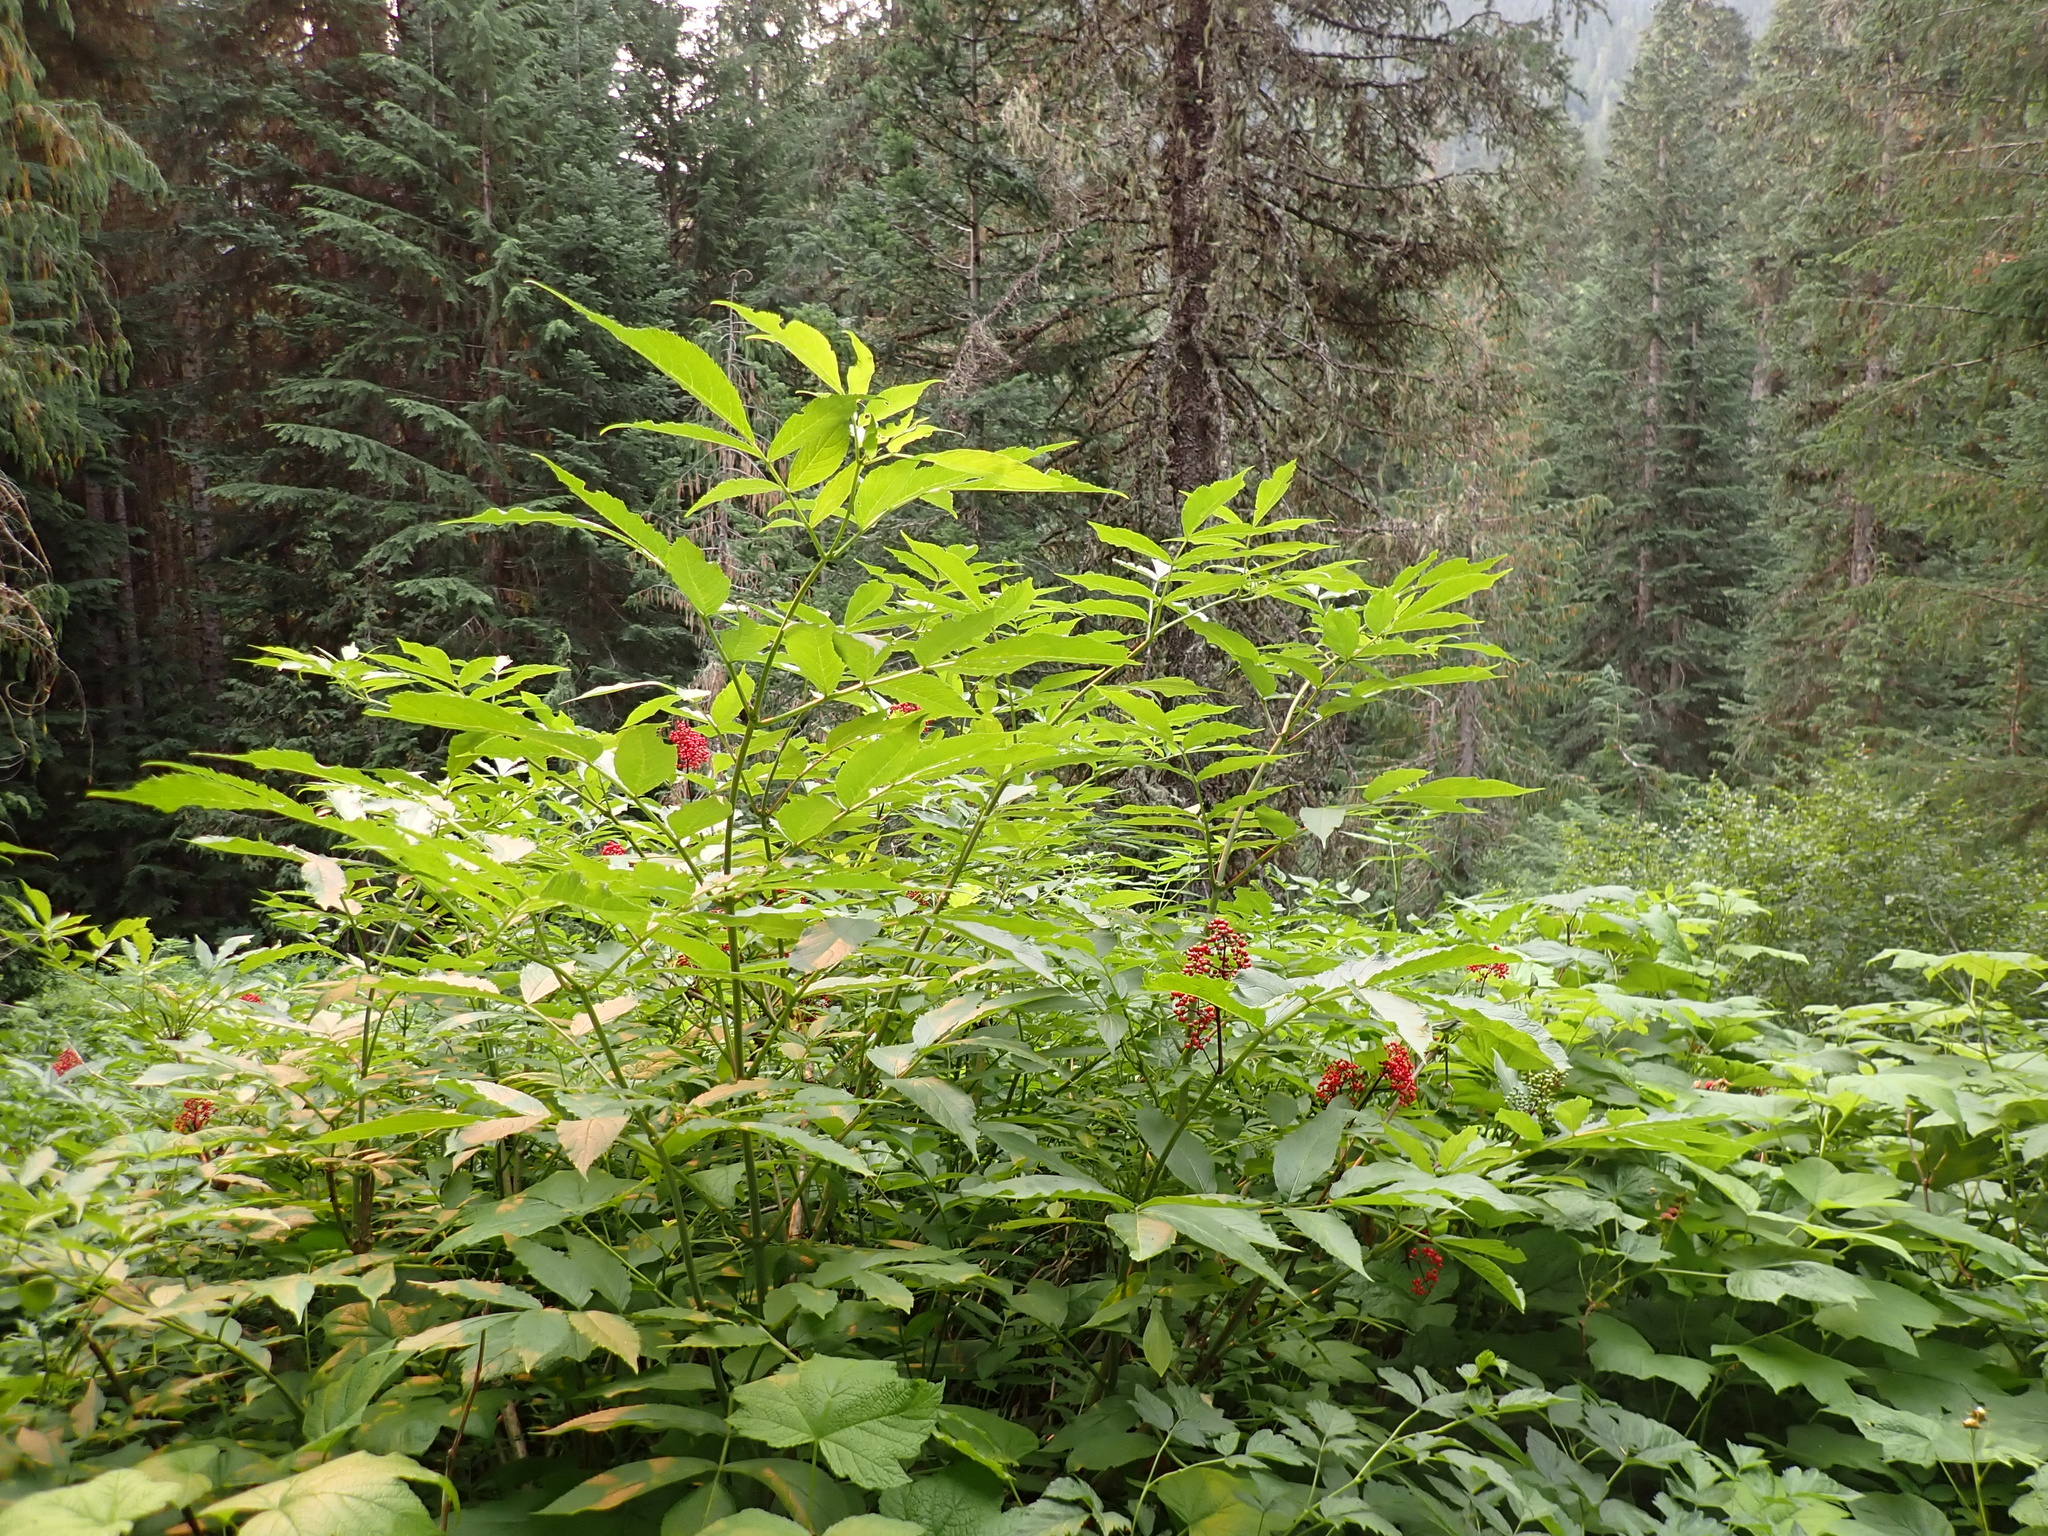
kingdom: Plantae
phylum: Tracheophyta
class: Magnoliopsida
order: Dipsacales
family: Viburnaceae
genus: Sambucus
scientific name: Sambucus racemosa
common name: Red-berried elder
